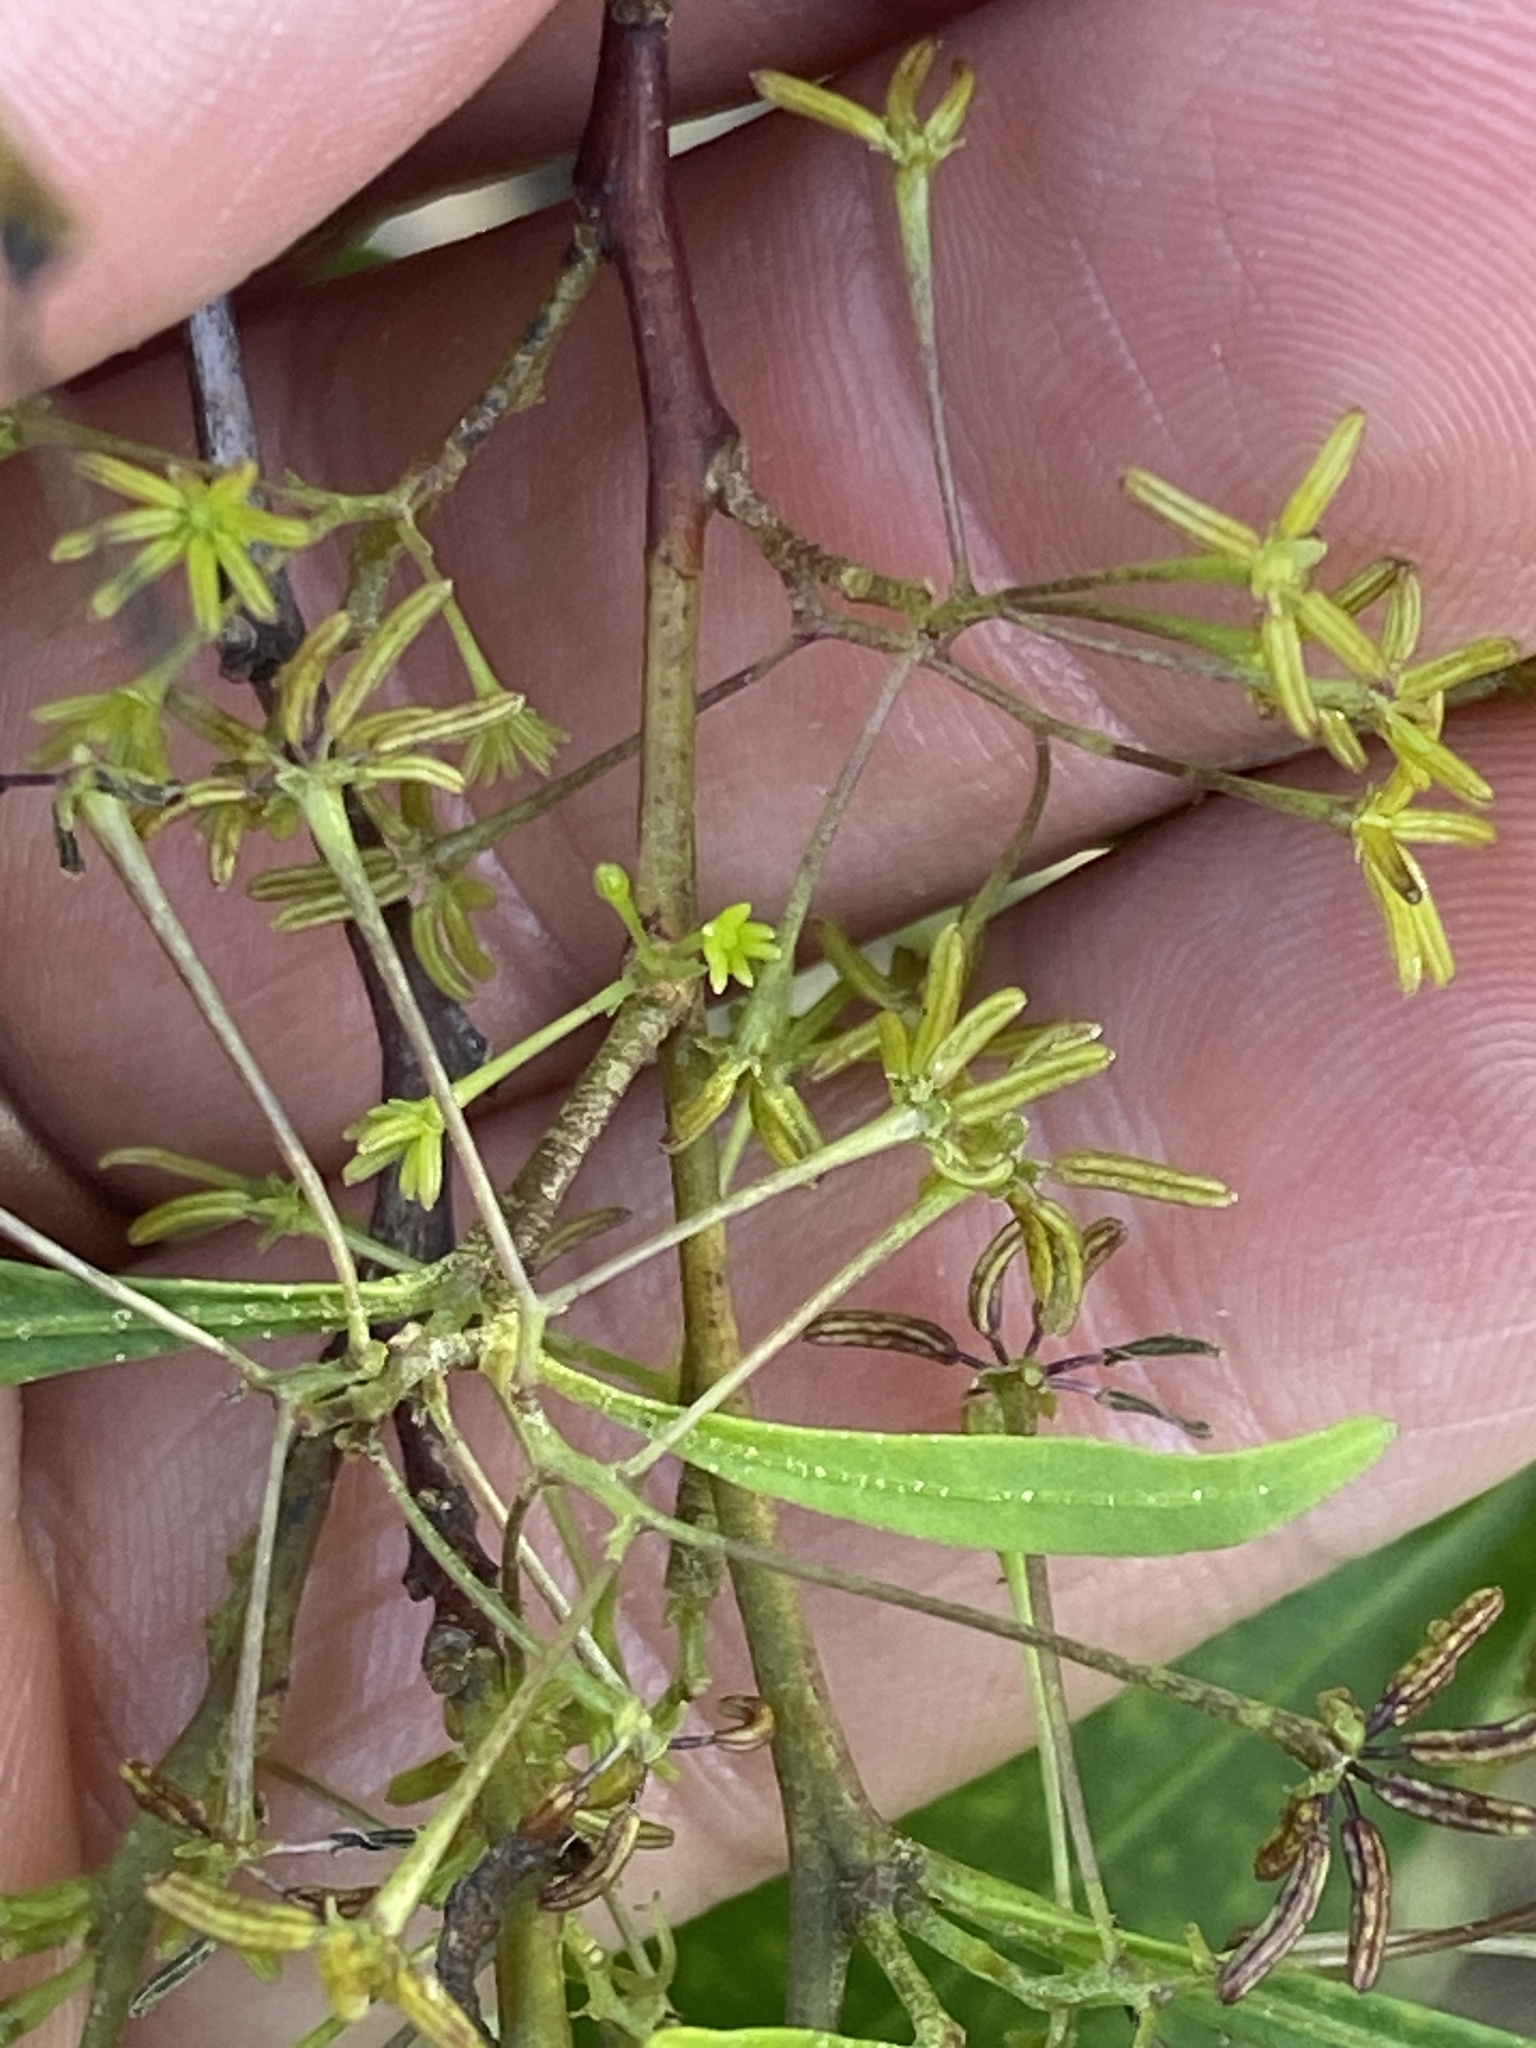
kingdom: Plantae
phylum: Tracheophyta
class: Magnoliopsida
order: Sapindales
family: Sapindaceae
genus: Dodonaea
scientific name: Dodonaea triquetra
